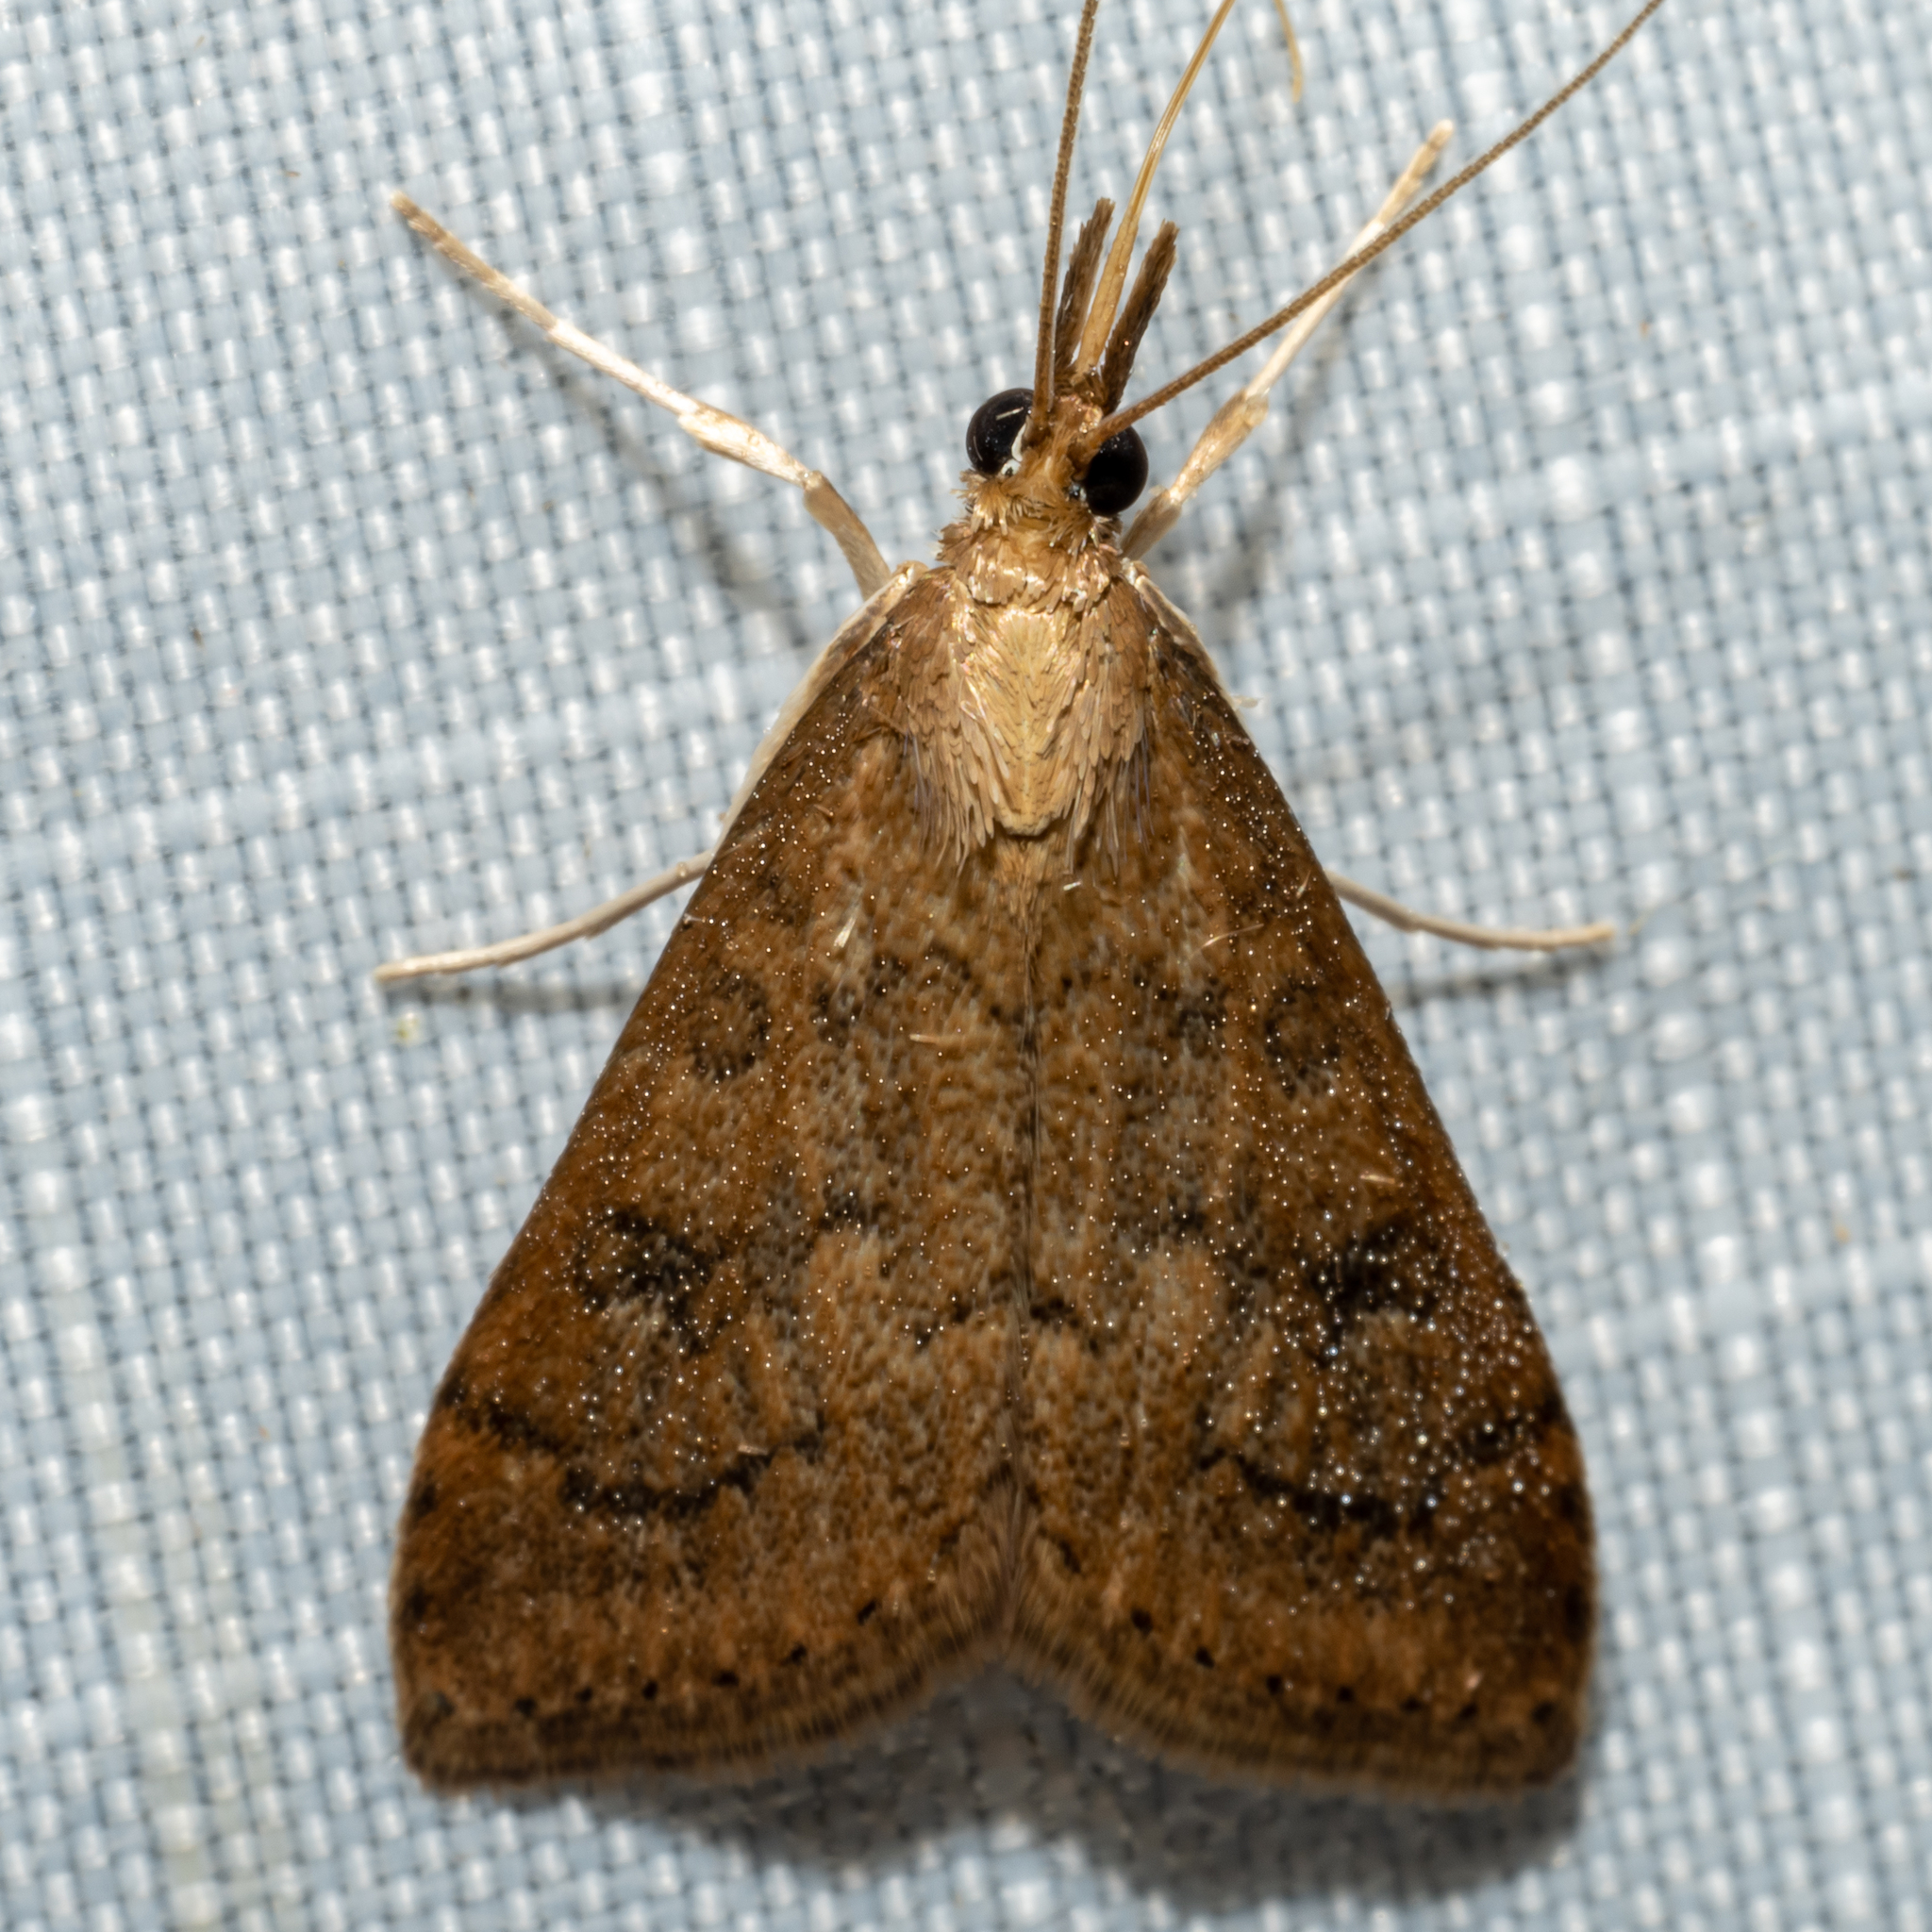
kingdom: Animalia
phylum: Arthropoda
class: Insecta
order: Lepidoptera
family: Crambidae
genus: Udea
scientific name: Udea rubigalis
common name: Celery leaftier moth
